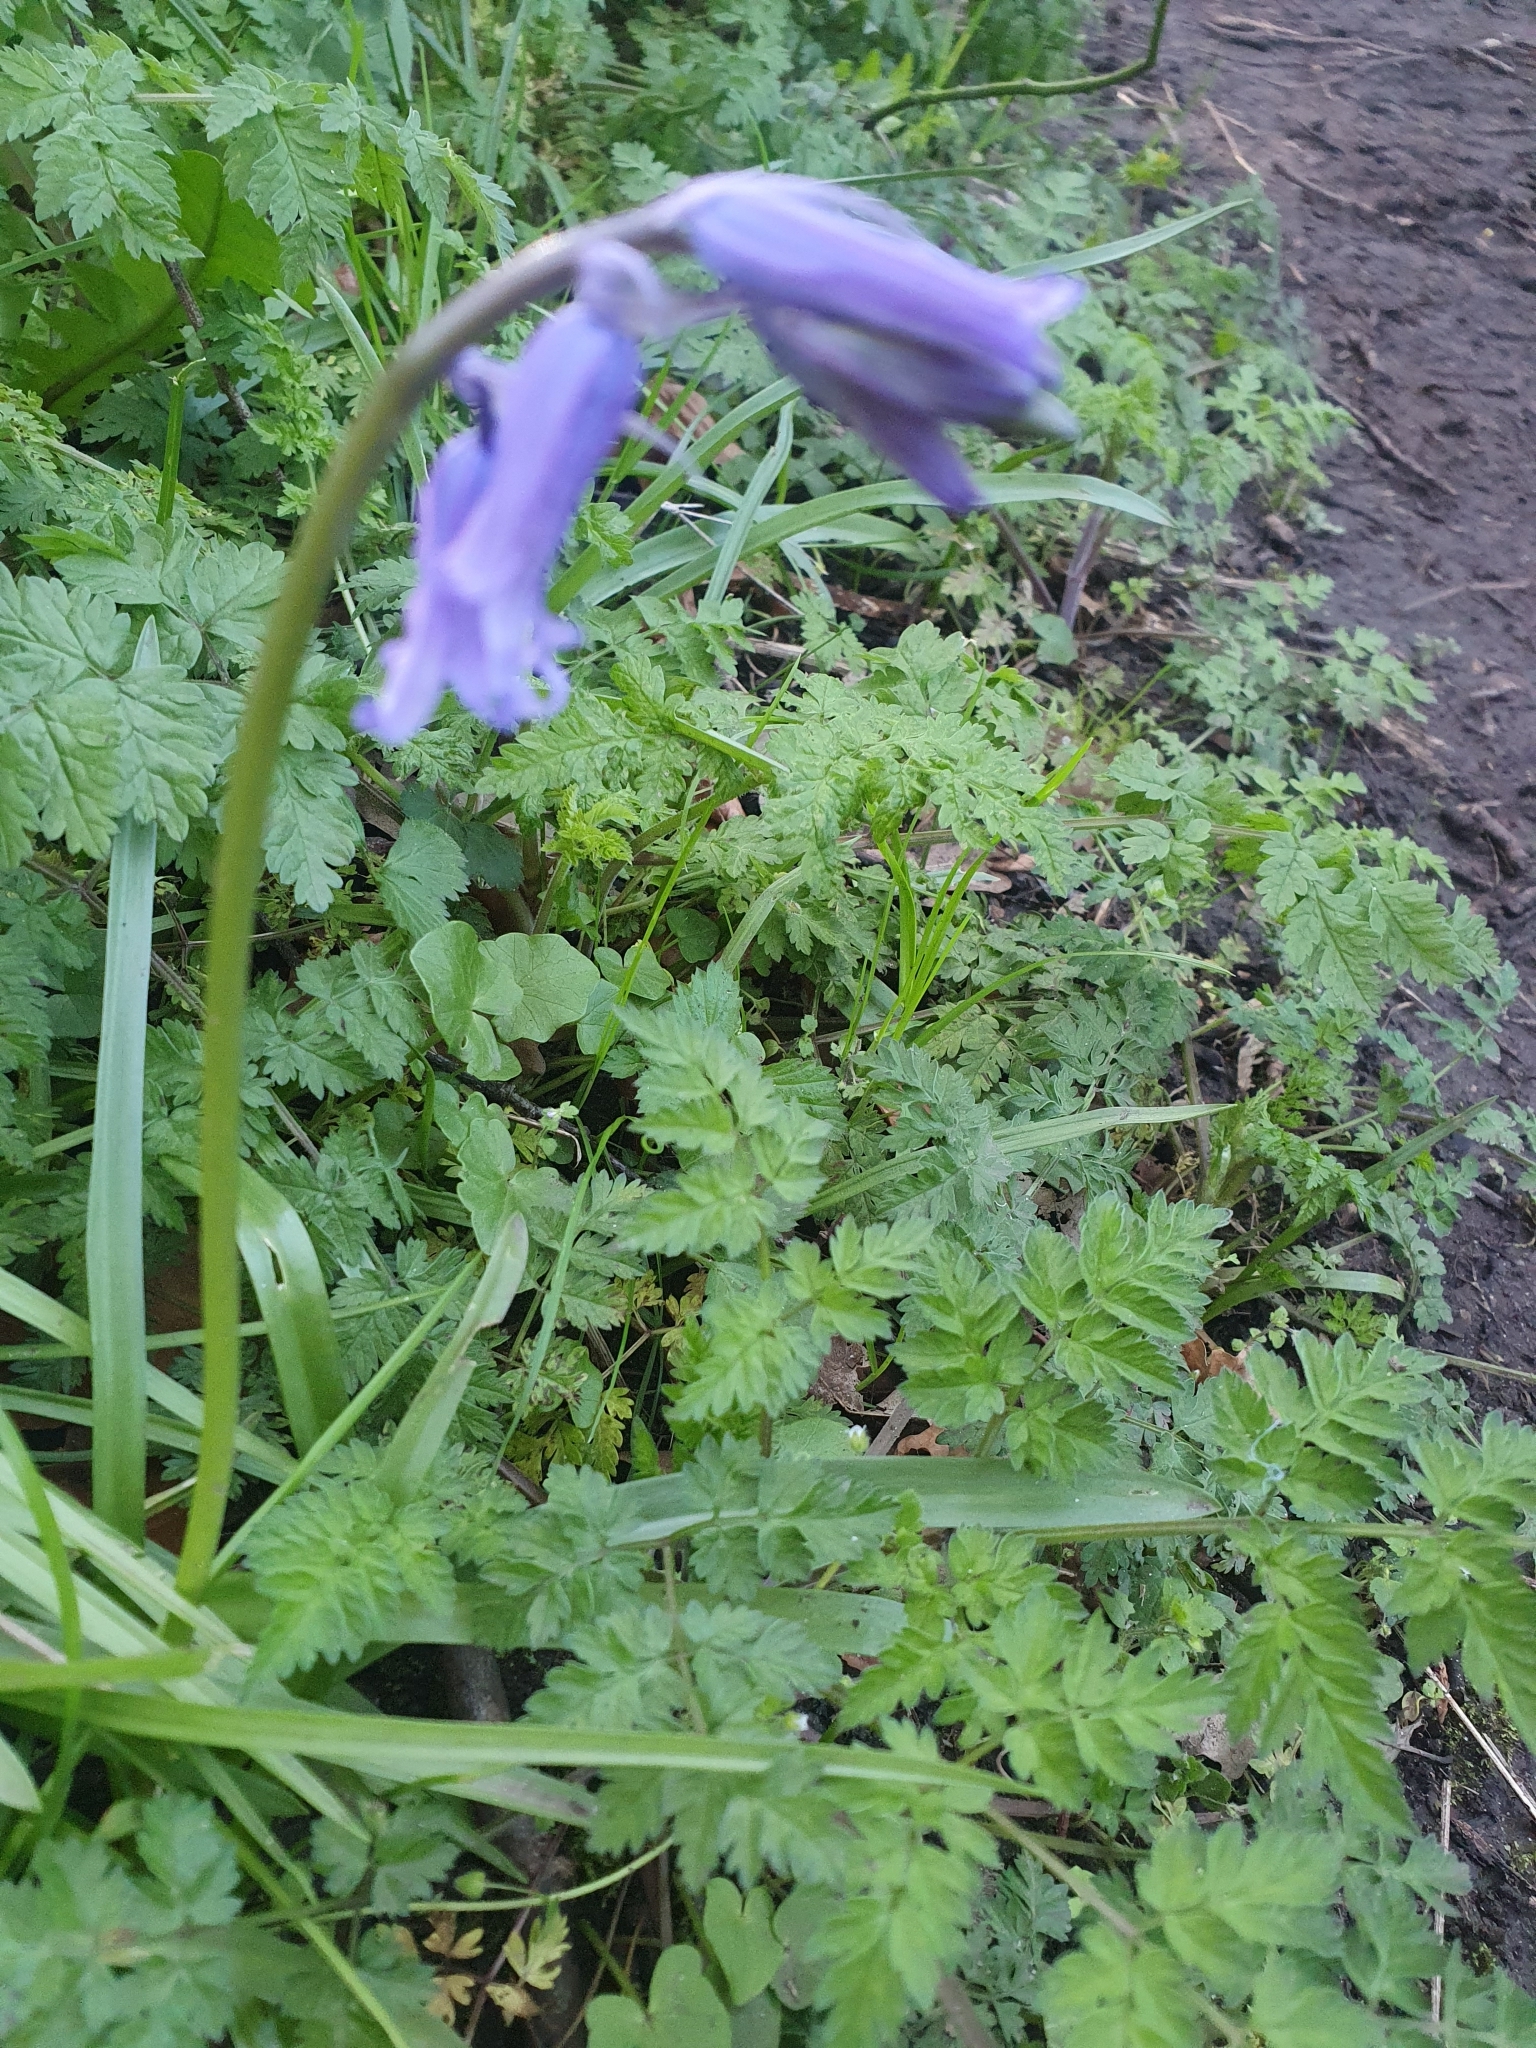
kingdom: Plantae
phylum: Tracheophyta
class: Liliopsida
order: Asparagales
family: Asparagaceae
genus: Hyacinthoides
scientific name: Hyacinthoides non-scripta
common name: Bluebell
